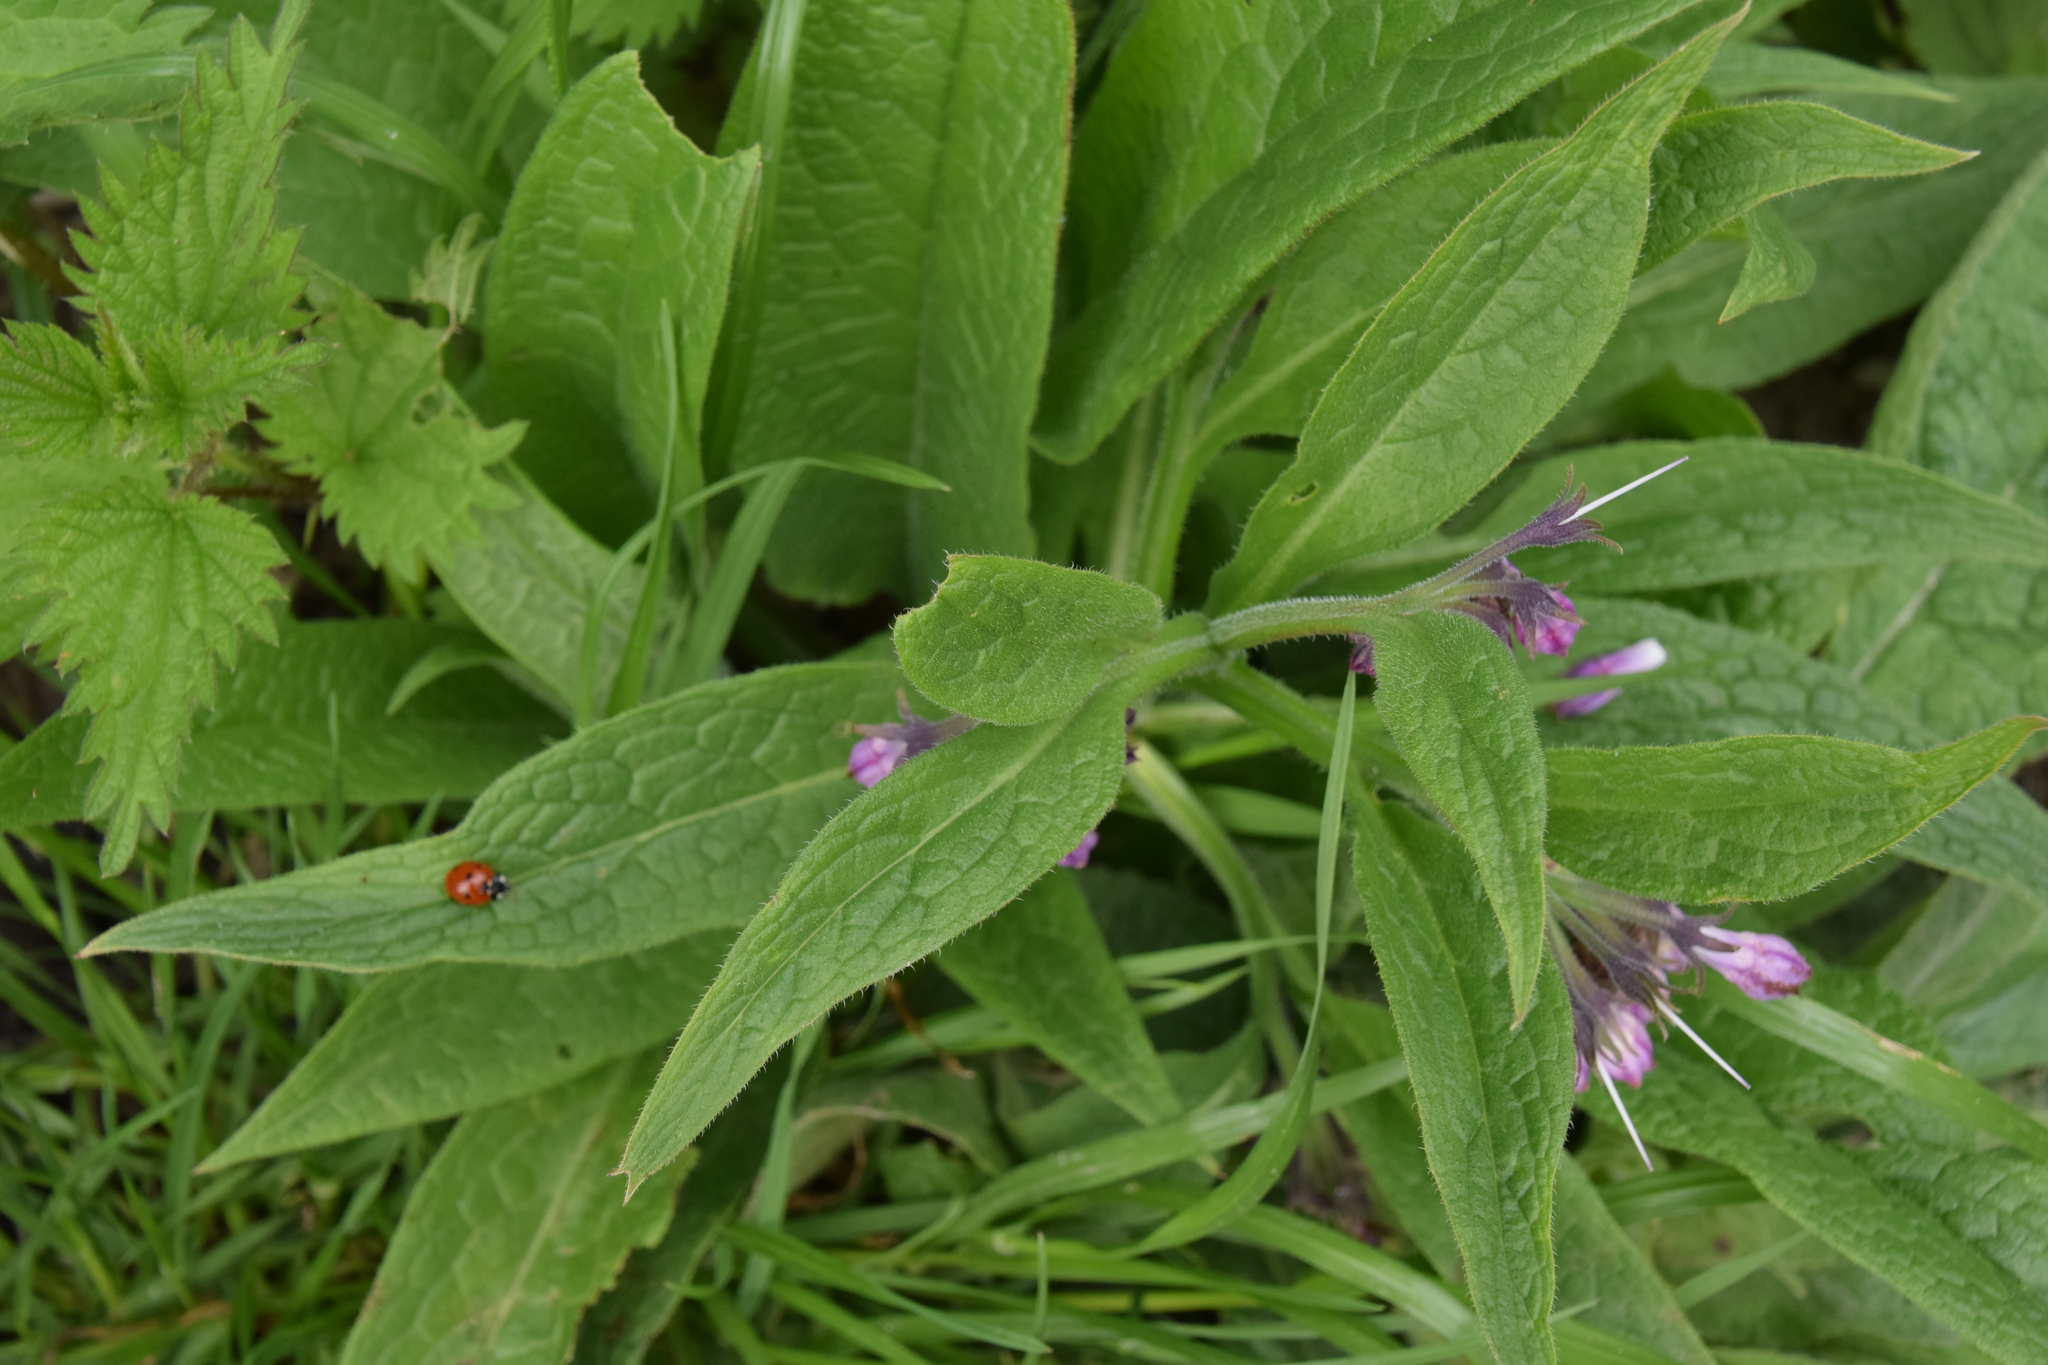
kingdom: Plantae
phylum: Tracheophyta
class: Magnoliopsida
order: Boraginales
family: Boraginaceae
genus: Symphytum
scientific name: Symphytum officinale
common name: Common comfrey
